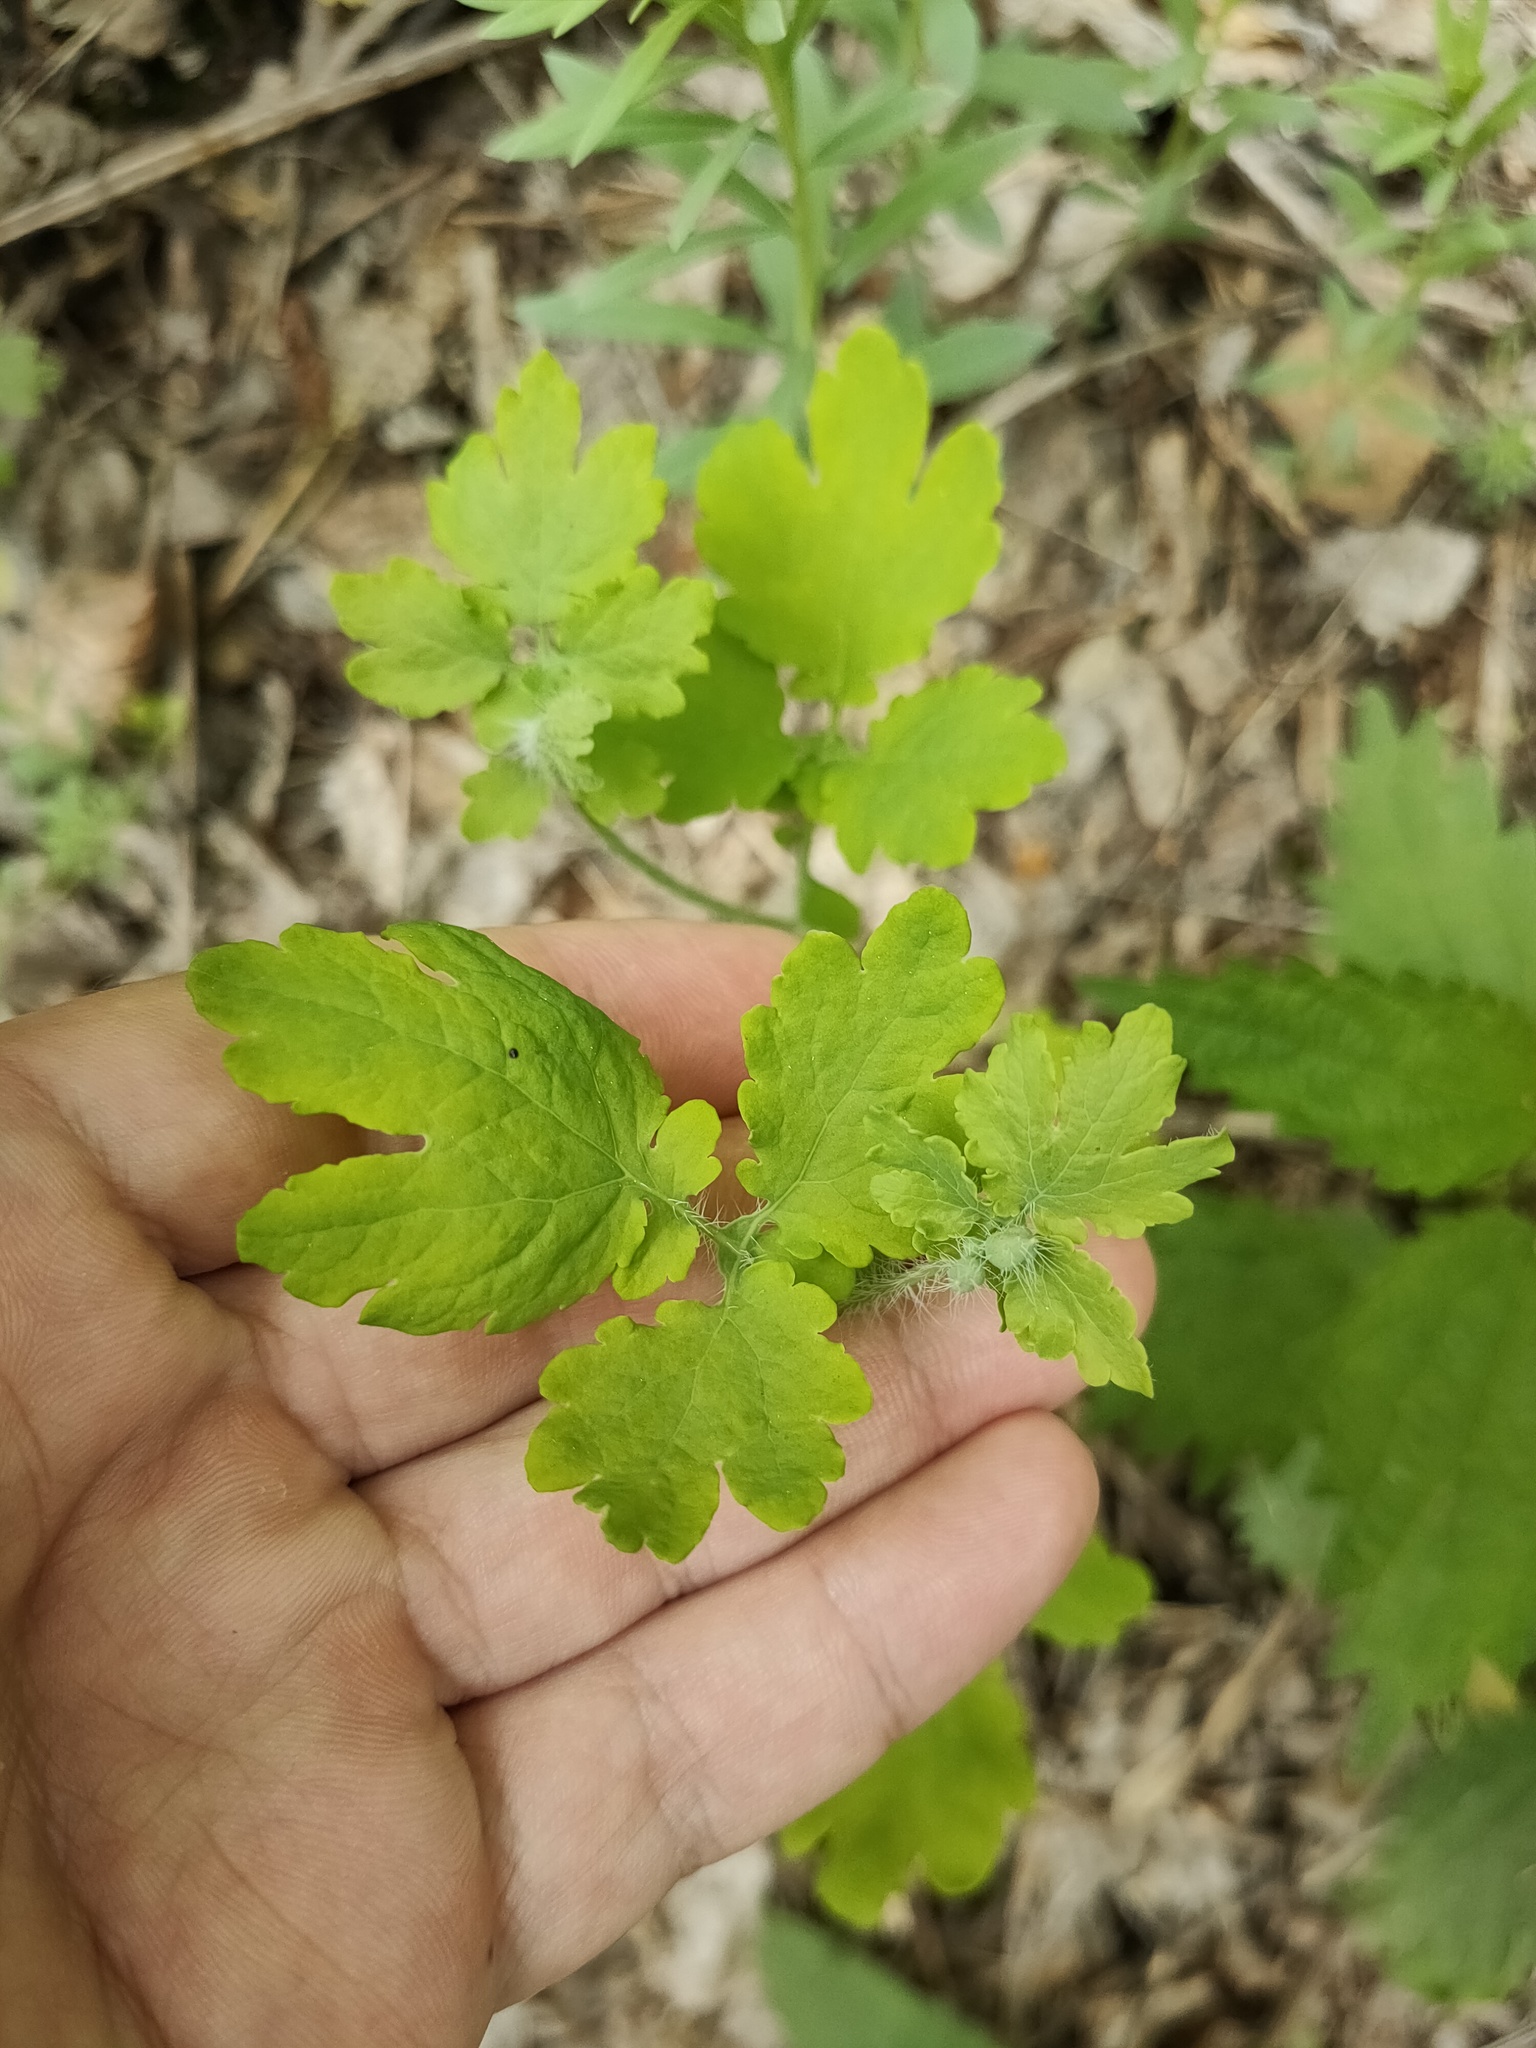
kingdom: Plantae
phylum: Tracheophyta
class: Magnoliopsida
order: Ranunculales
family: Papaveraceae
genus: Chelidonium
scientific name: Chelidonium majus
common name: Greater celandine
